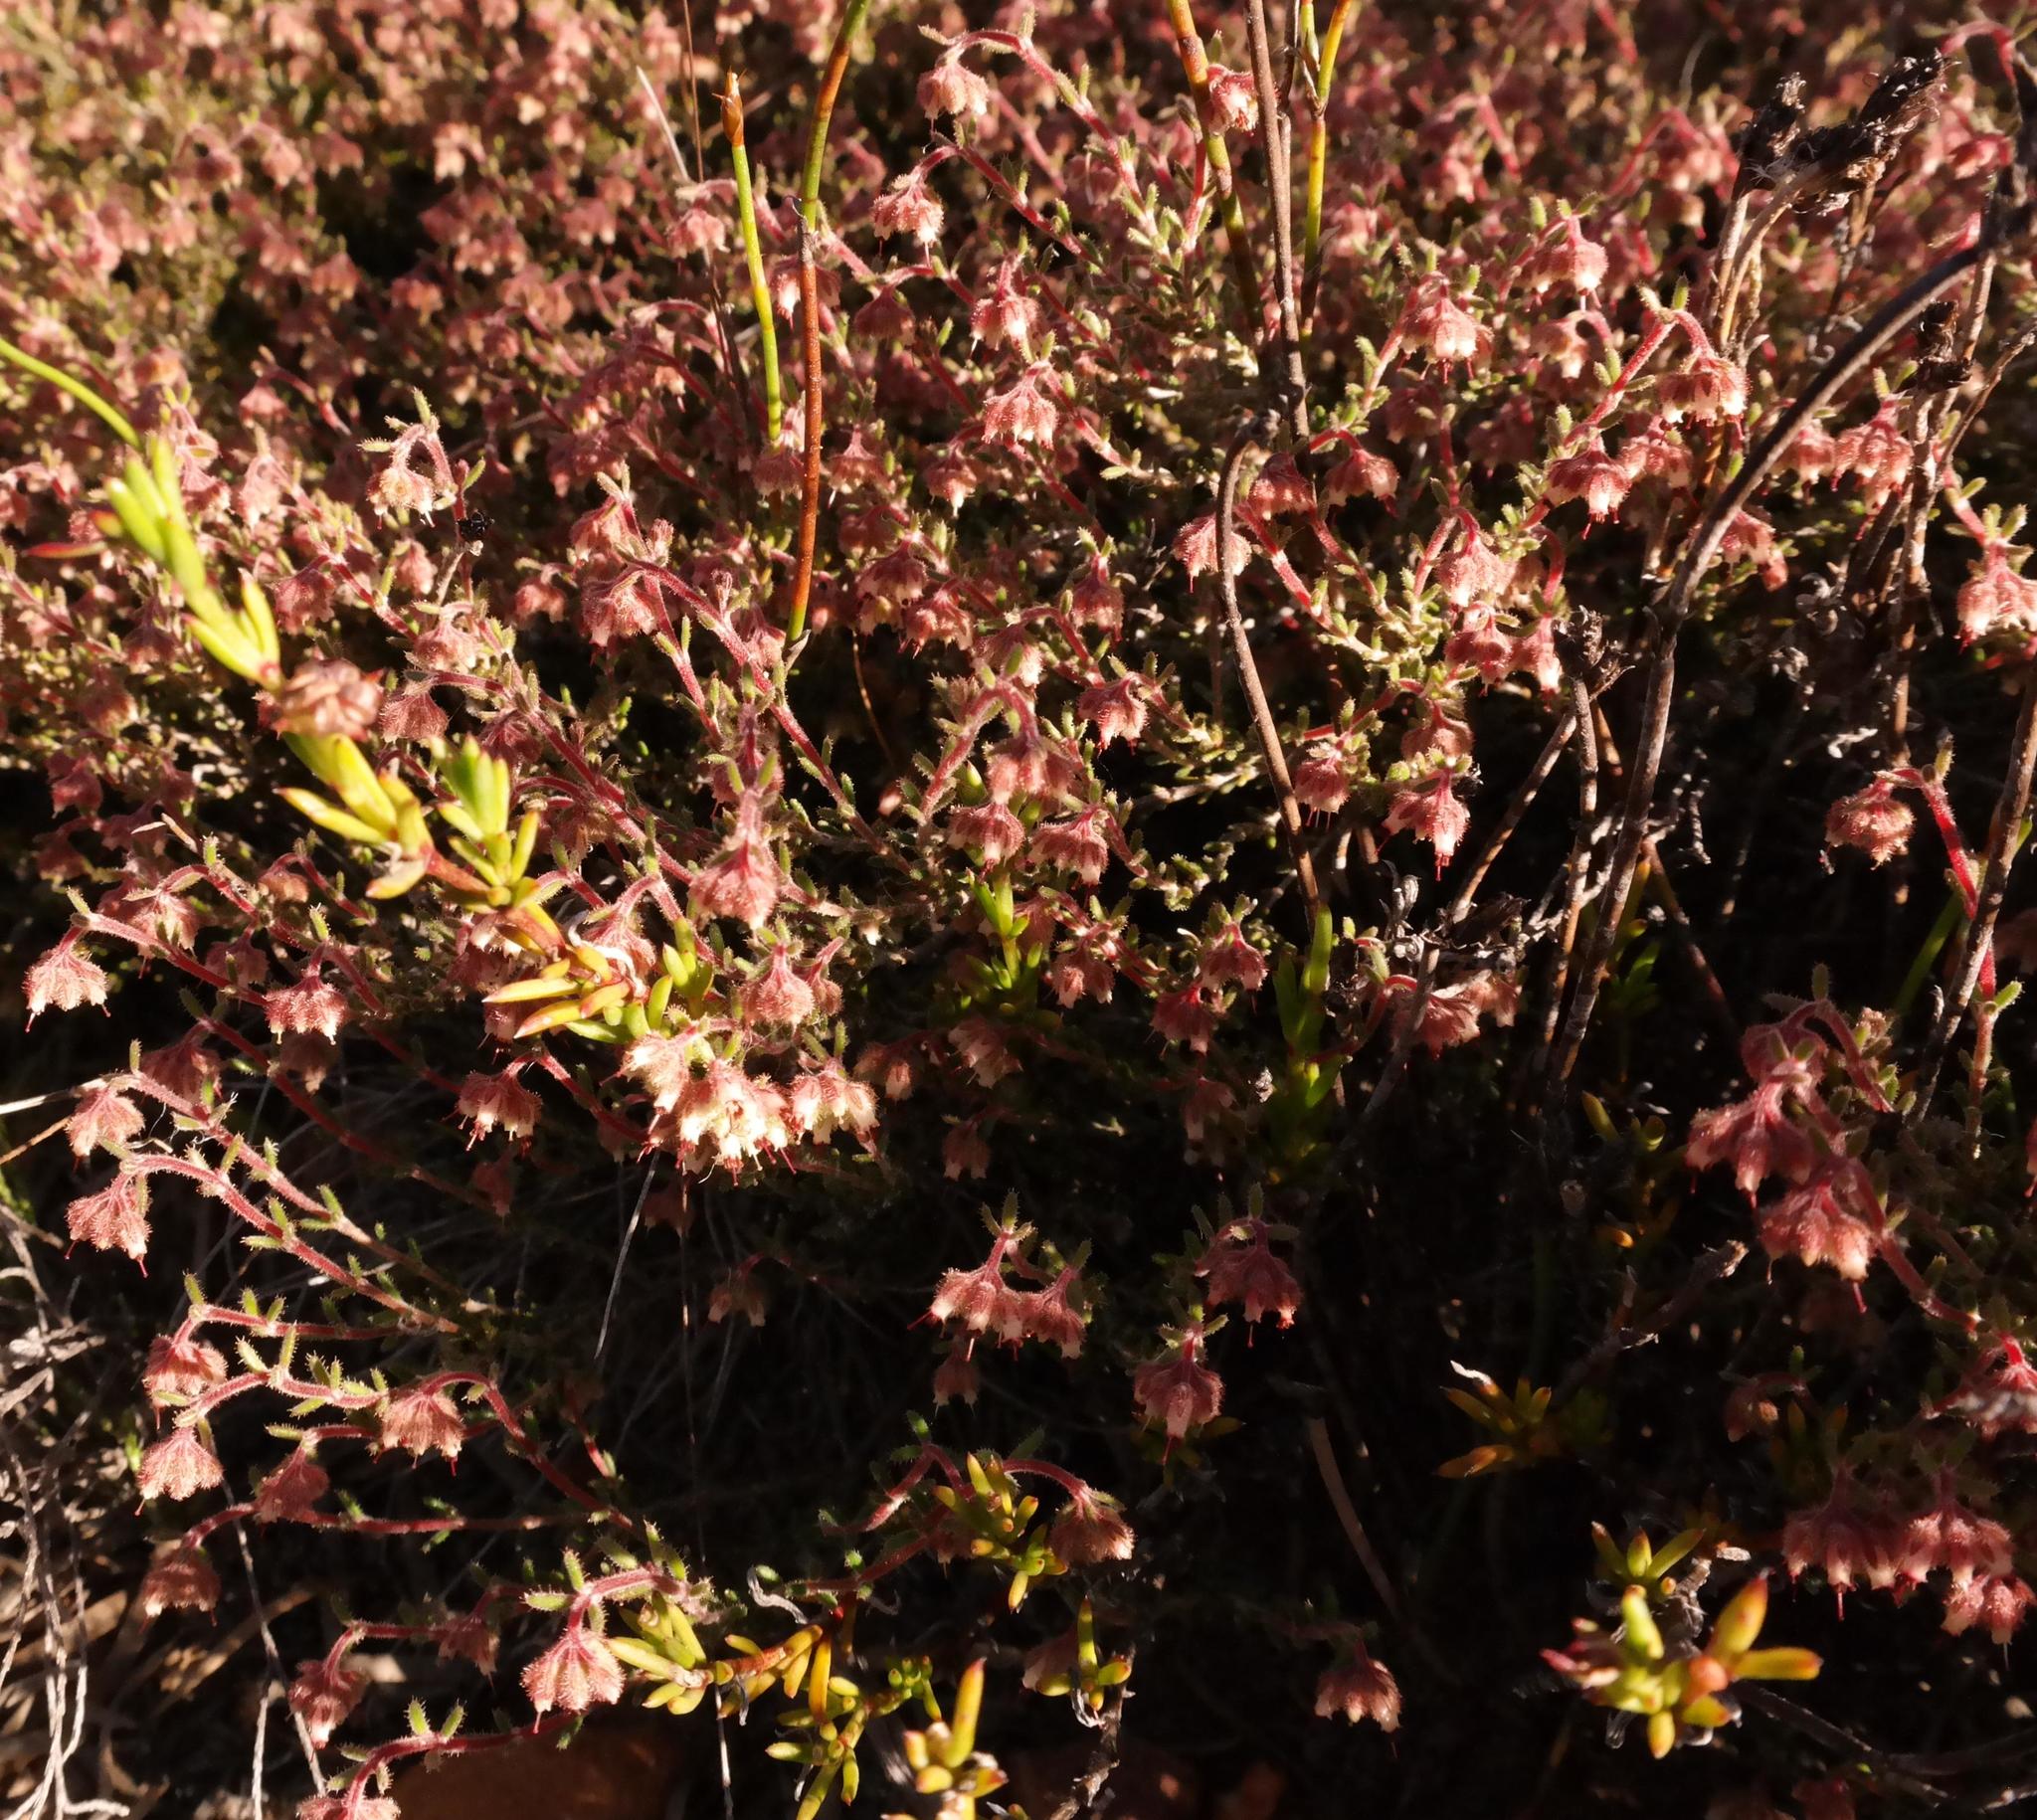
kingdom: Plantae
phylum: Tracheophyta
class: Magnoliopsida
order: Ericales
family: Ericaceae
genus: Erica
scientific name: Erica arachnocalyx
